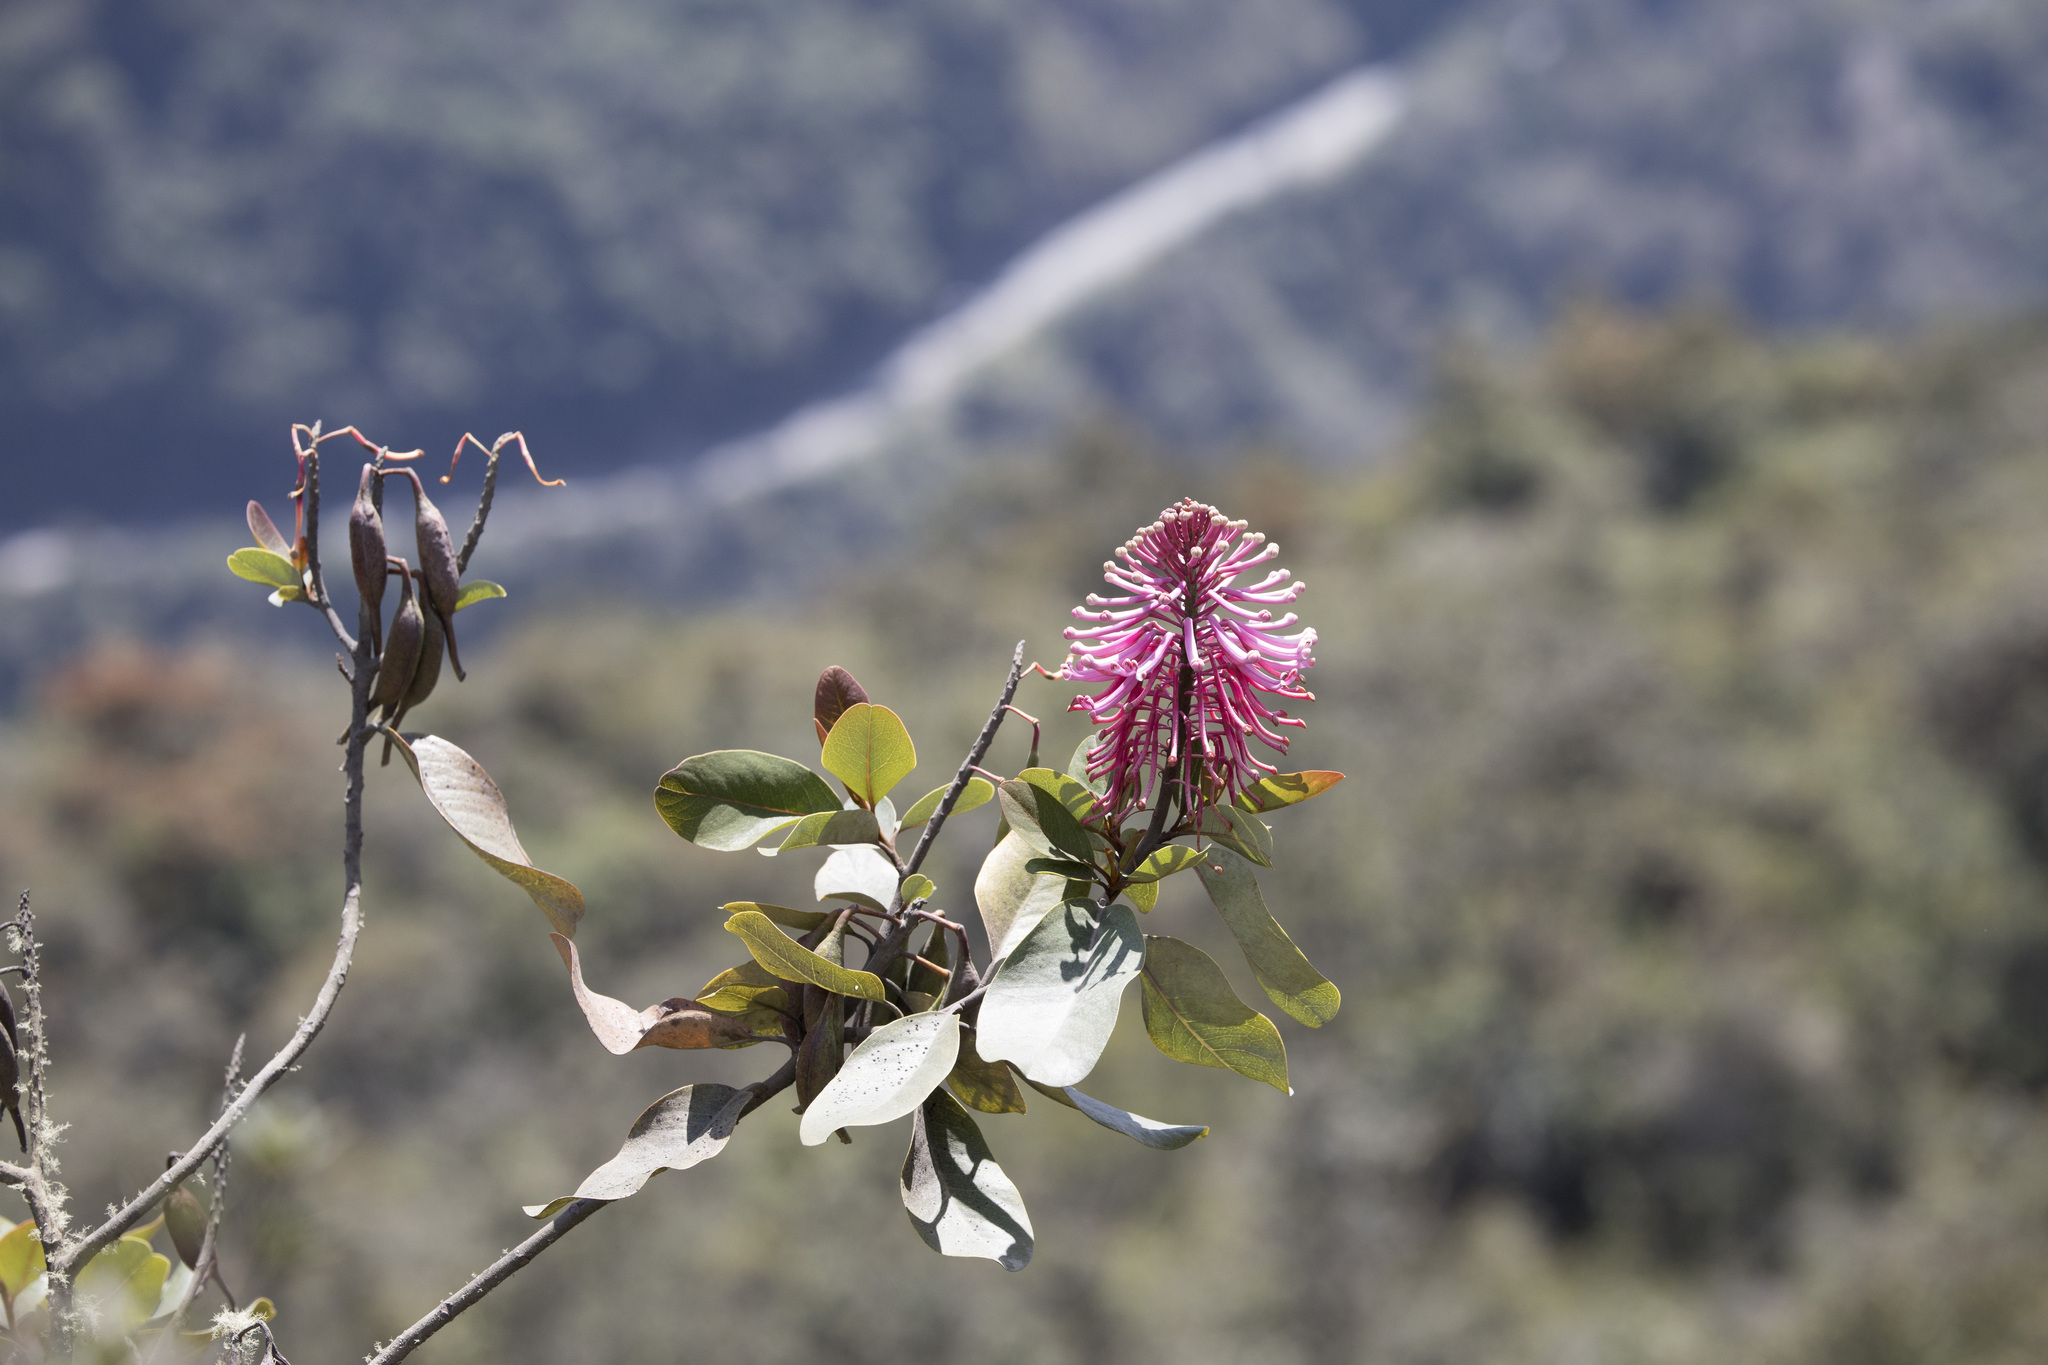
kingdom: Plantae
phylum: Tracheophyta
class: Magnoliopsida
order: Proteales
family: Proteaceae
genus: Oreocallis
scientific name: Oreocallis grandiflora
